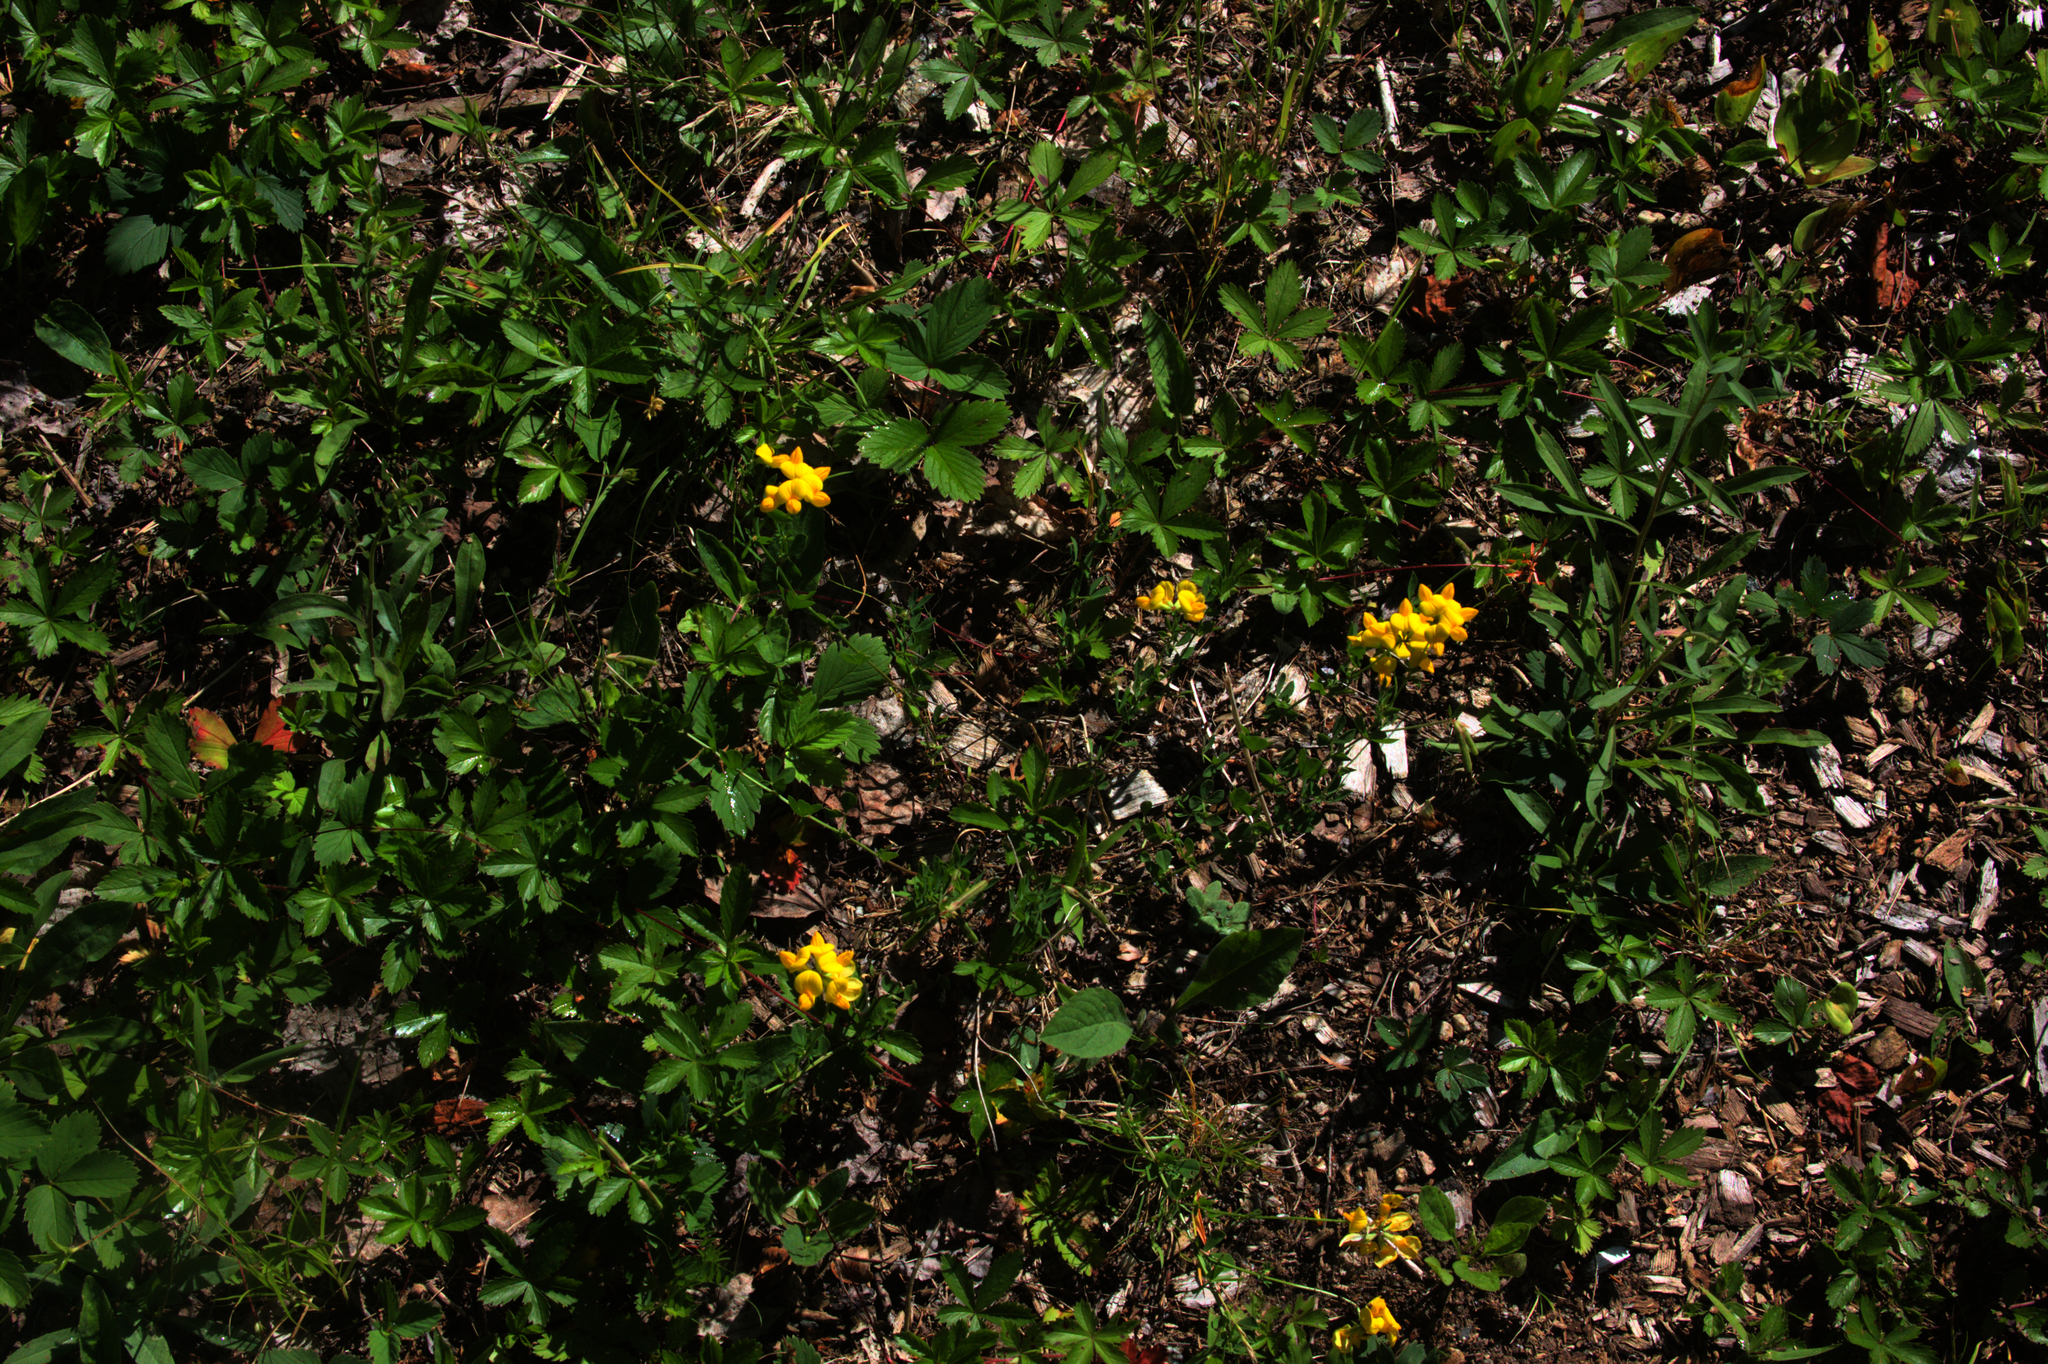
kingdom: Plantae
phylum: Tracheophyta
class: Magnoliopsida
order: Fabales
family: Fabaceae
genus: Lotus
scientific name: Lotus corniculatus
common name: Common bird's-foot-trefoil
